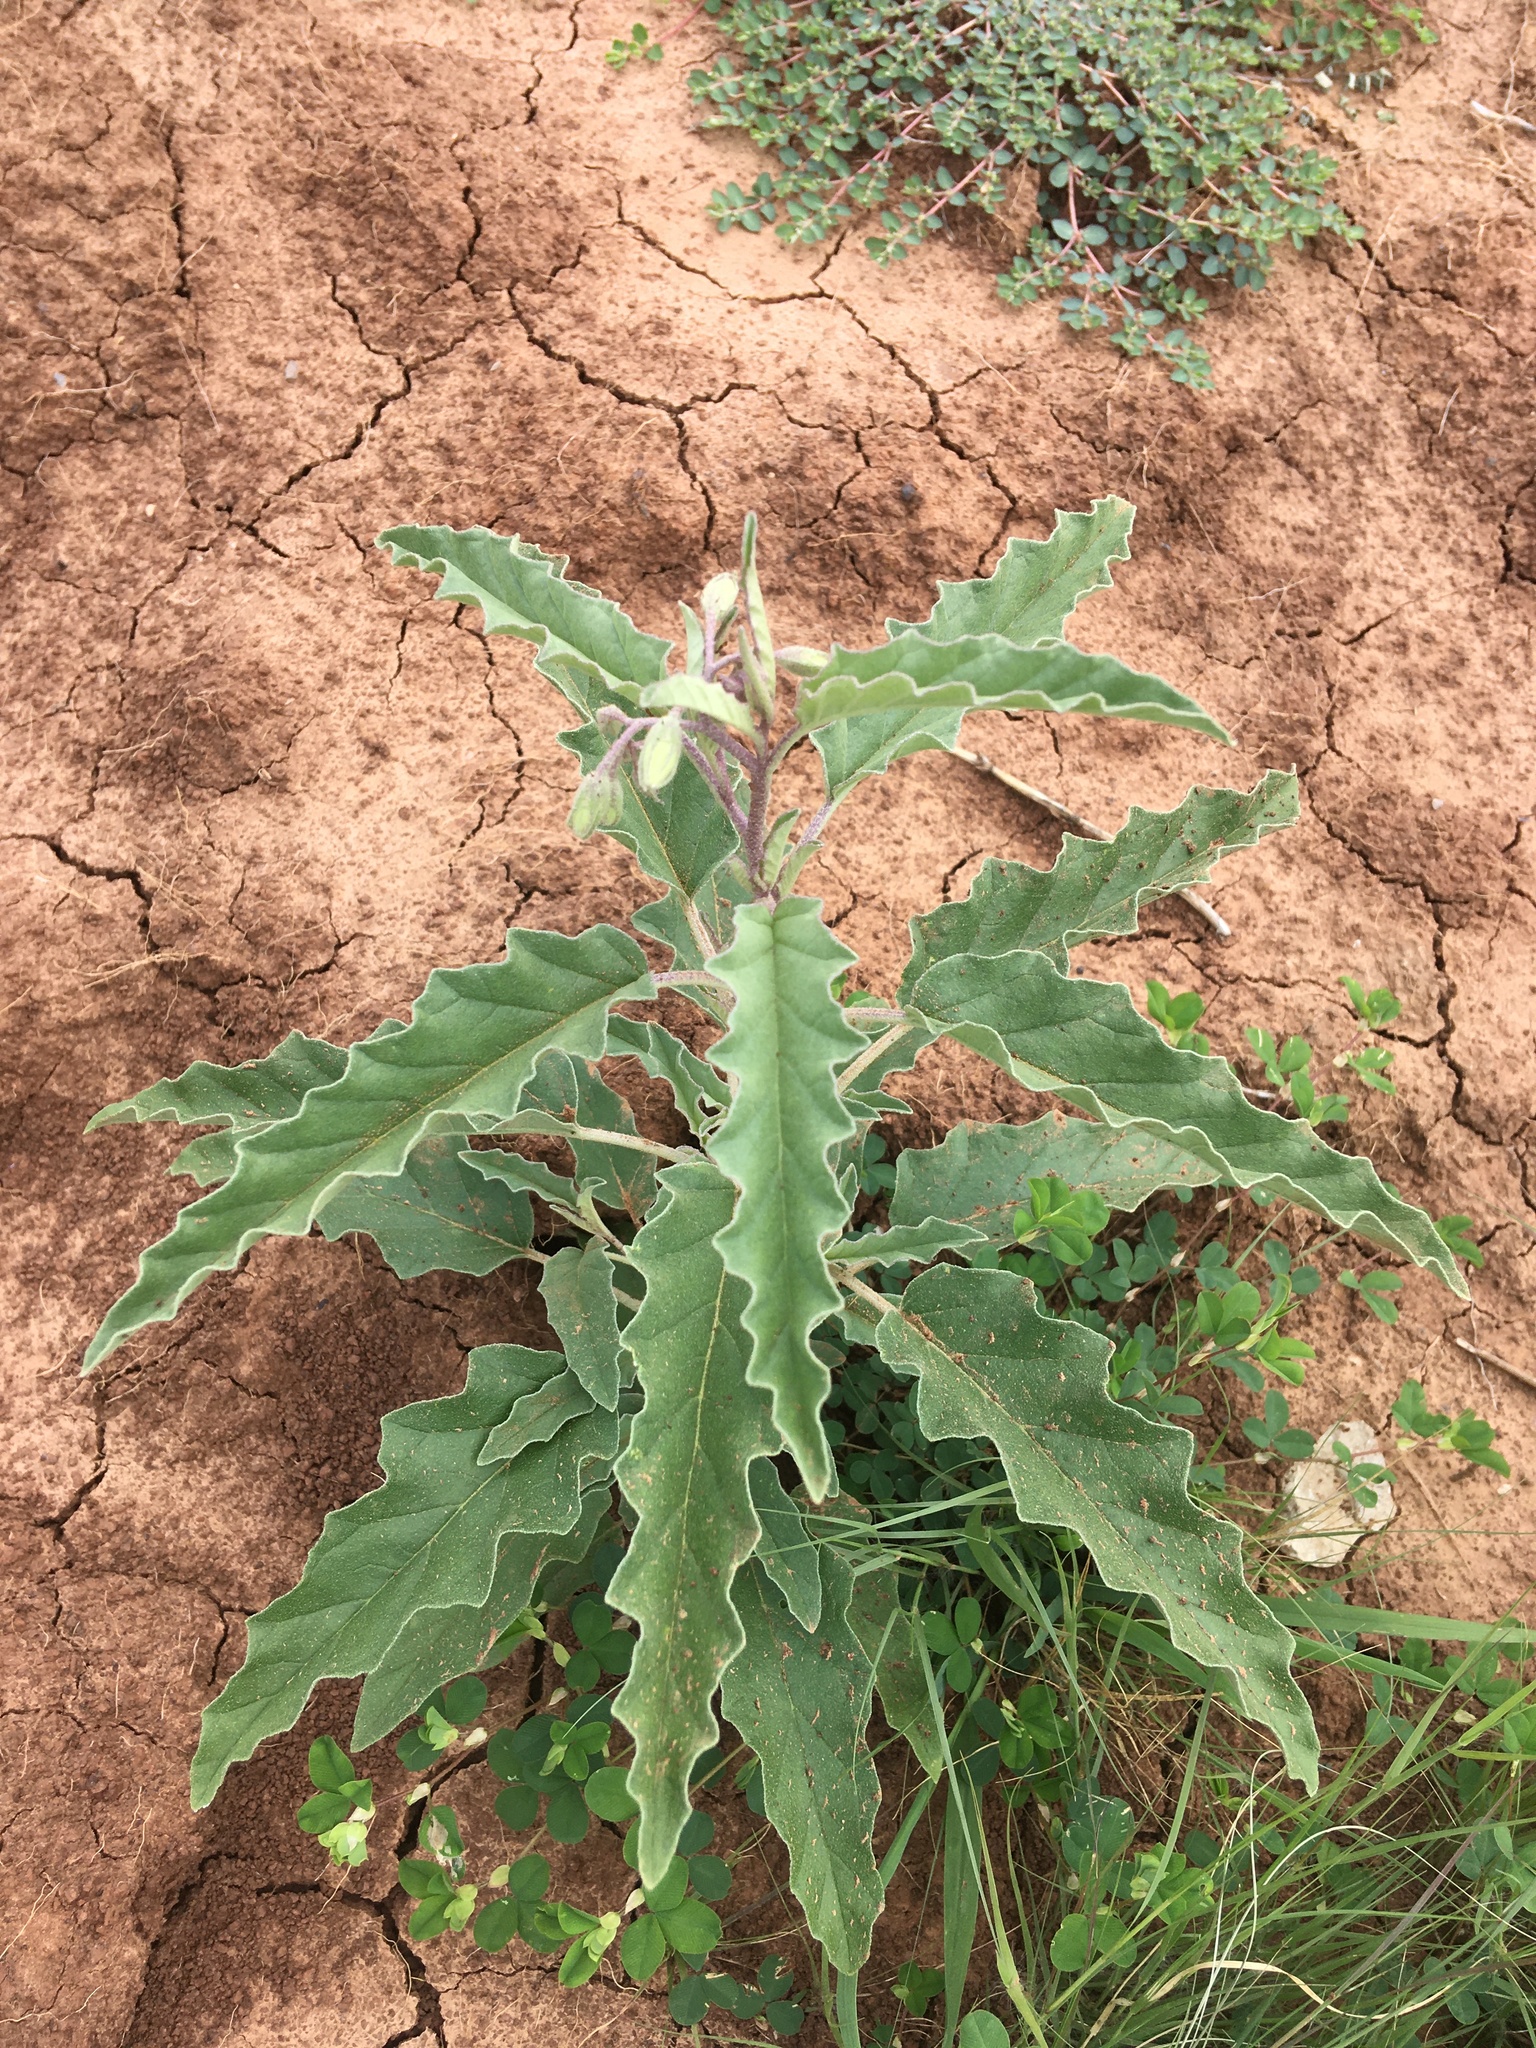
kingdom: Plantae
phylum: Tracheophyta
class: Magnoliopsida
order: Solanales
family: Solanaceae
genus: Solanum
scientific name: Solanum elaeagnifolium
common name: Silverleaf nightshade
